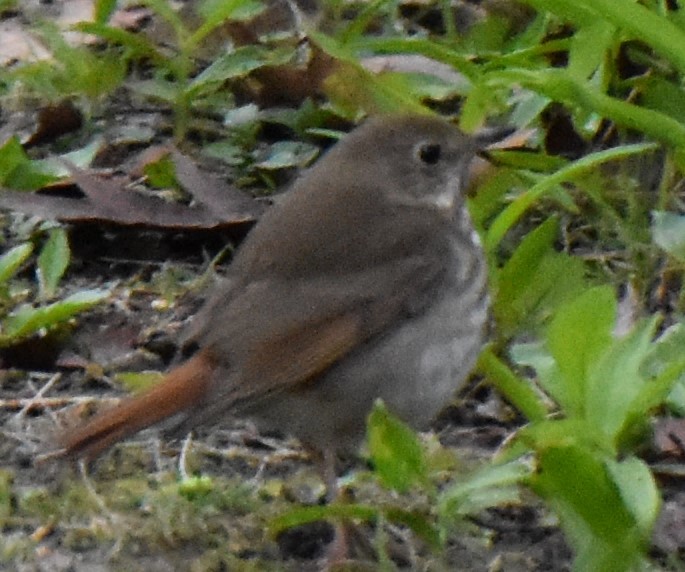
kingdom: Animalia
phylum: Chordata
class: Aves
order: Passeriformes
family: Turdidae
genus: Catharus
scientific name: Catharus guttatus
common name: Hermit thrush
